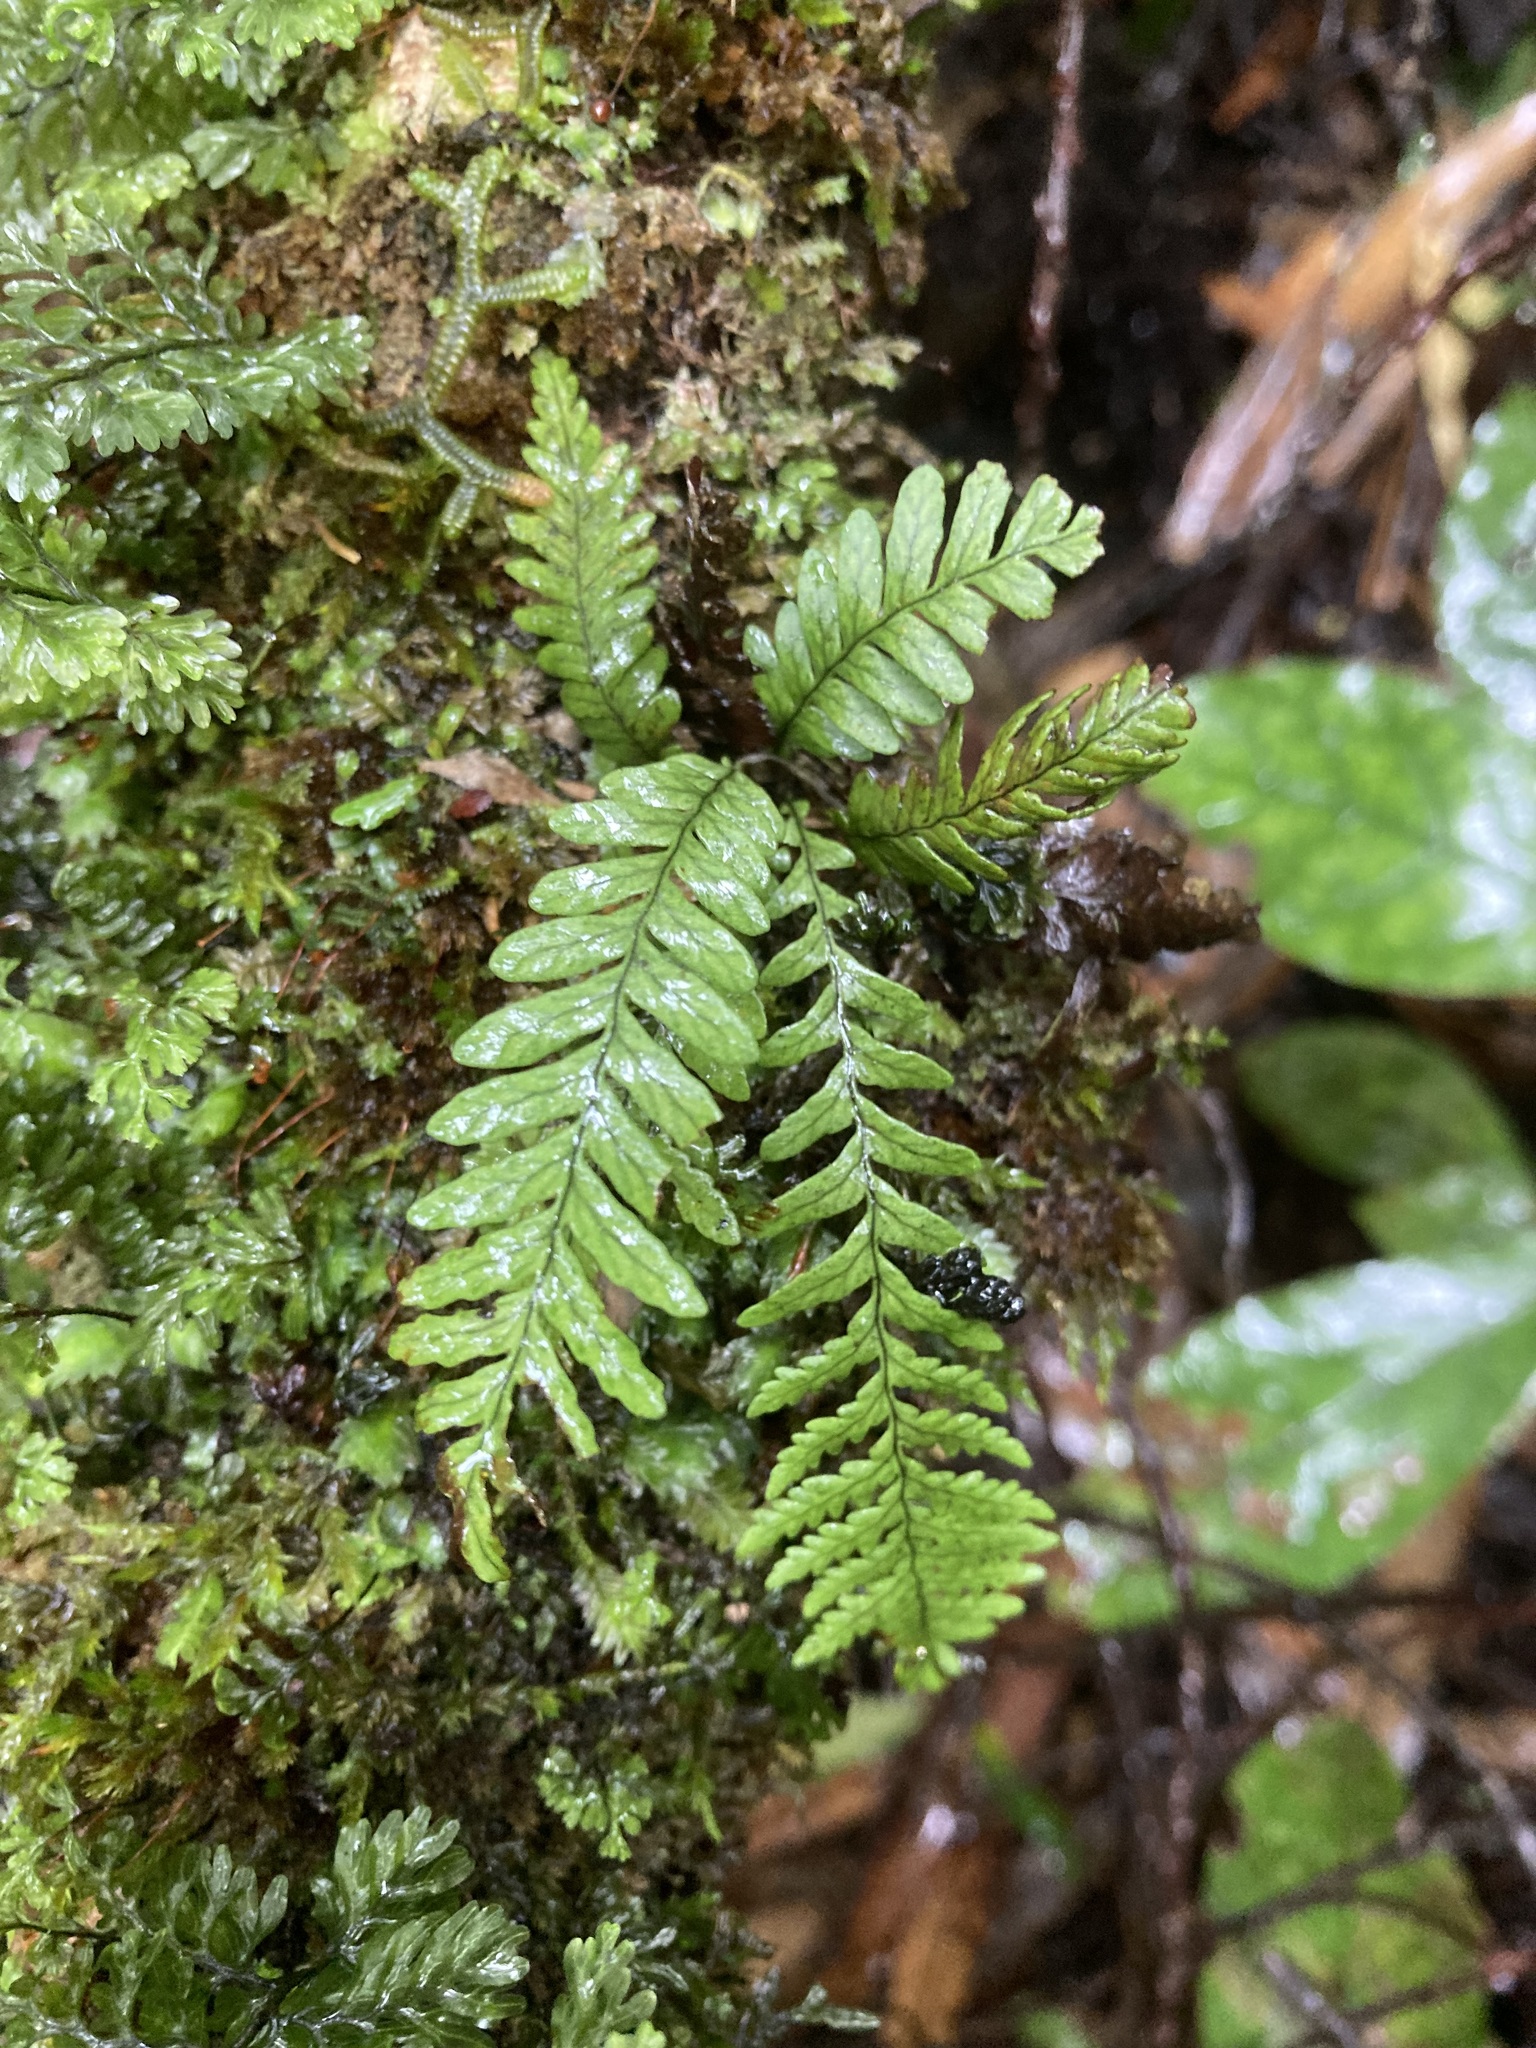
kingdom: Plantae
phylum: Tracheophyta
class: Polypodiopsida
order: Polypodiales
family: Polypodiaceae
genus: Notogrammitis
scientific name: Notogrammitis heterophylla
